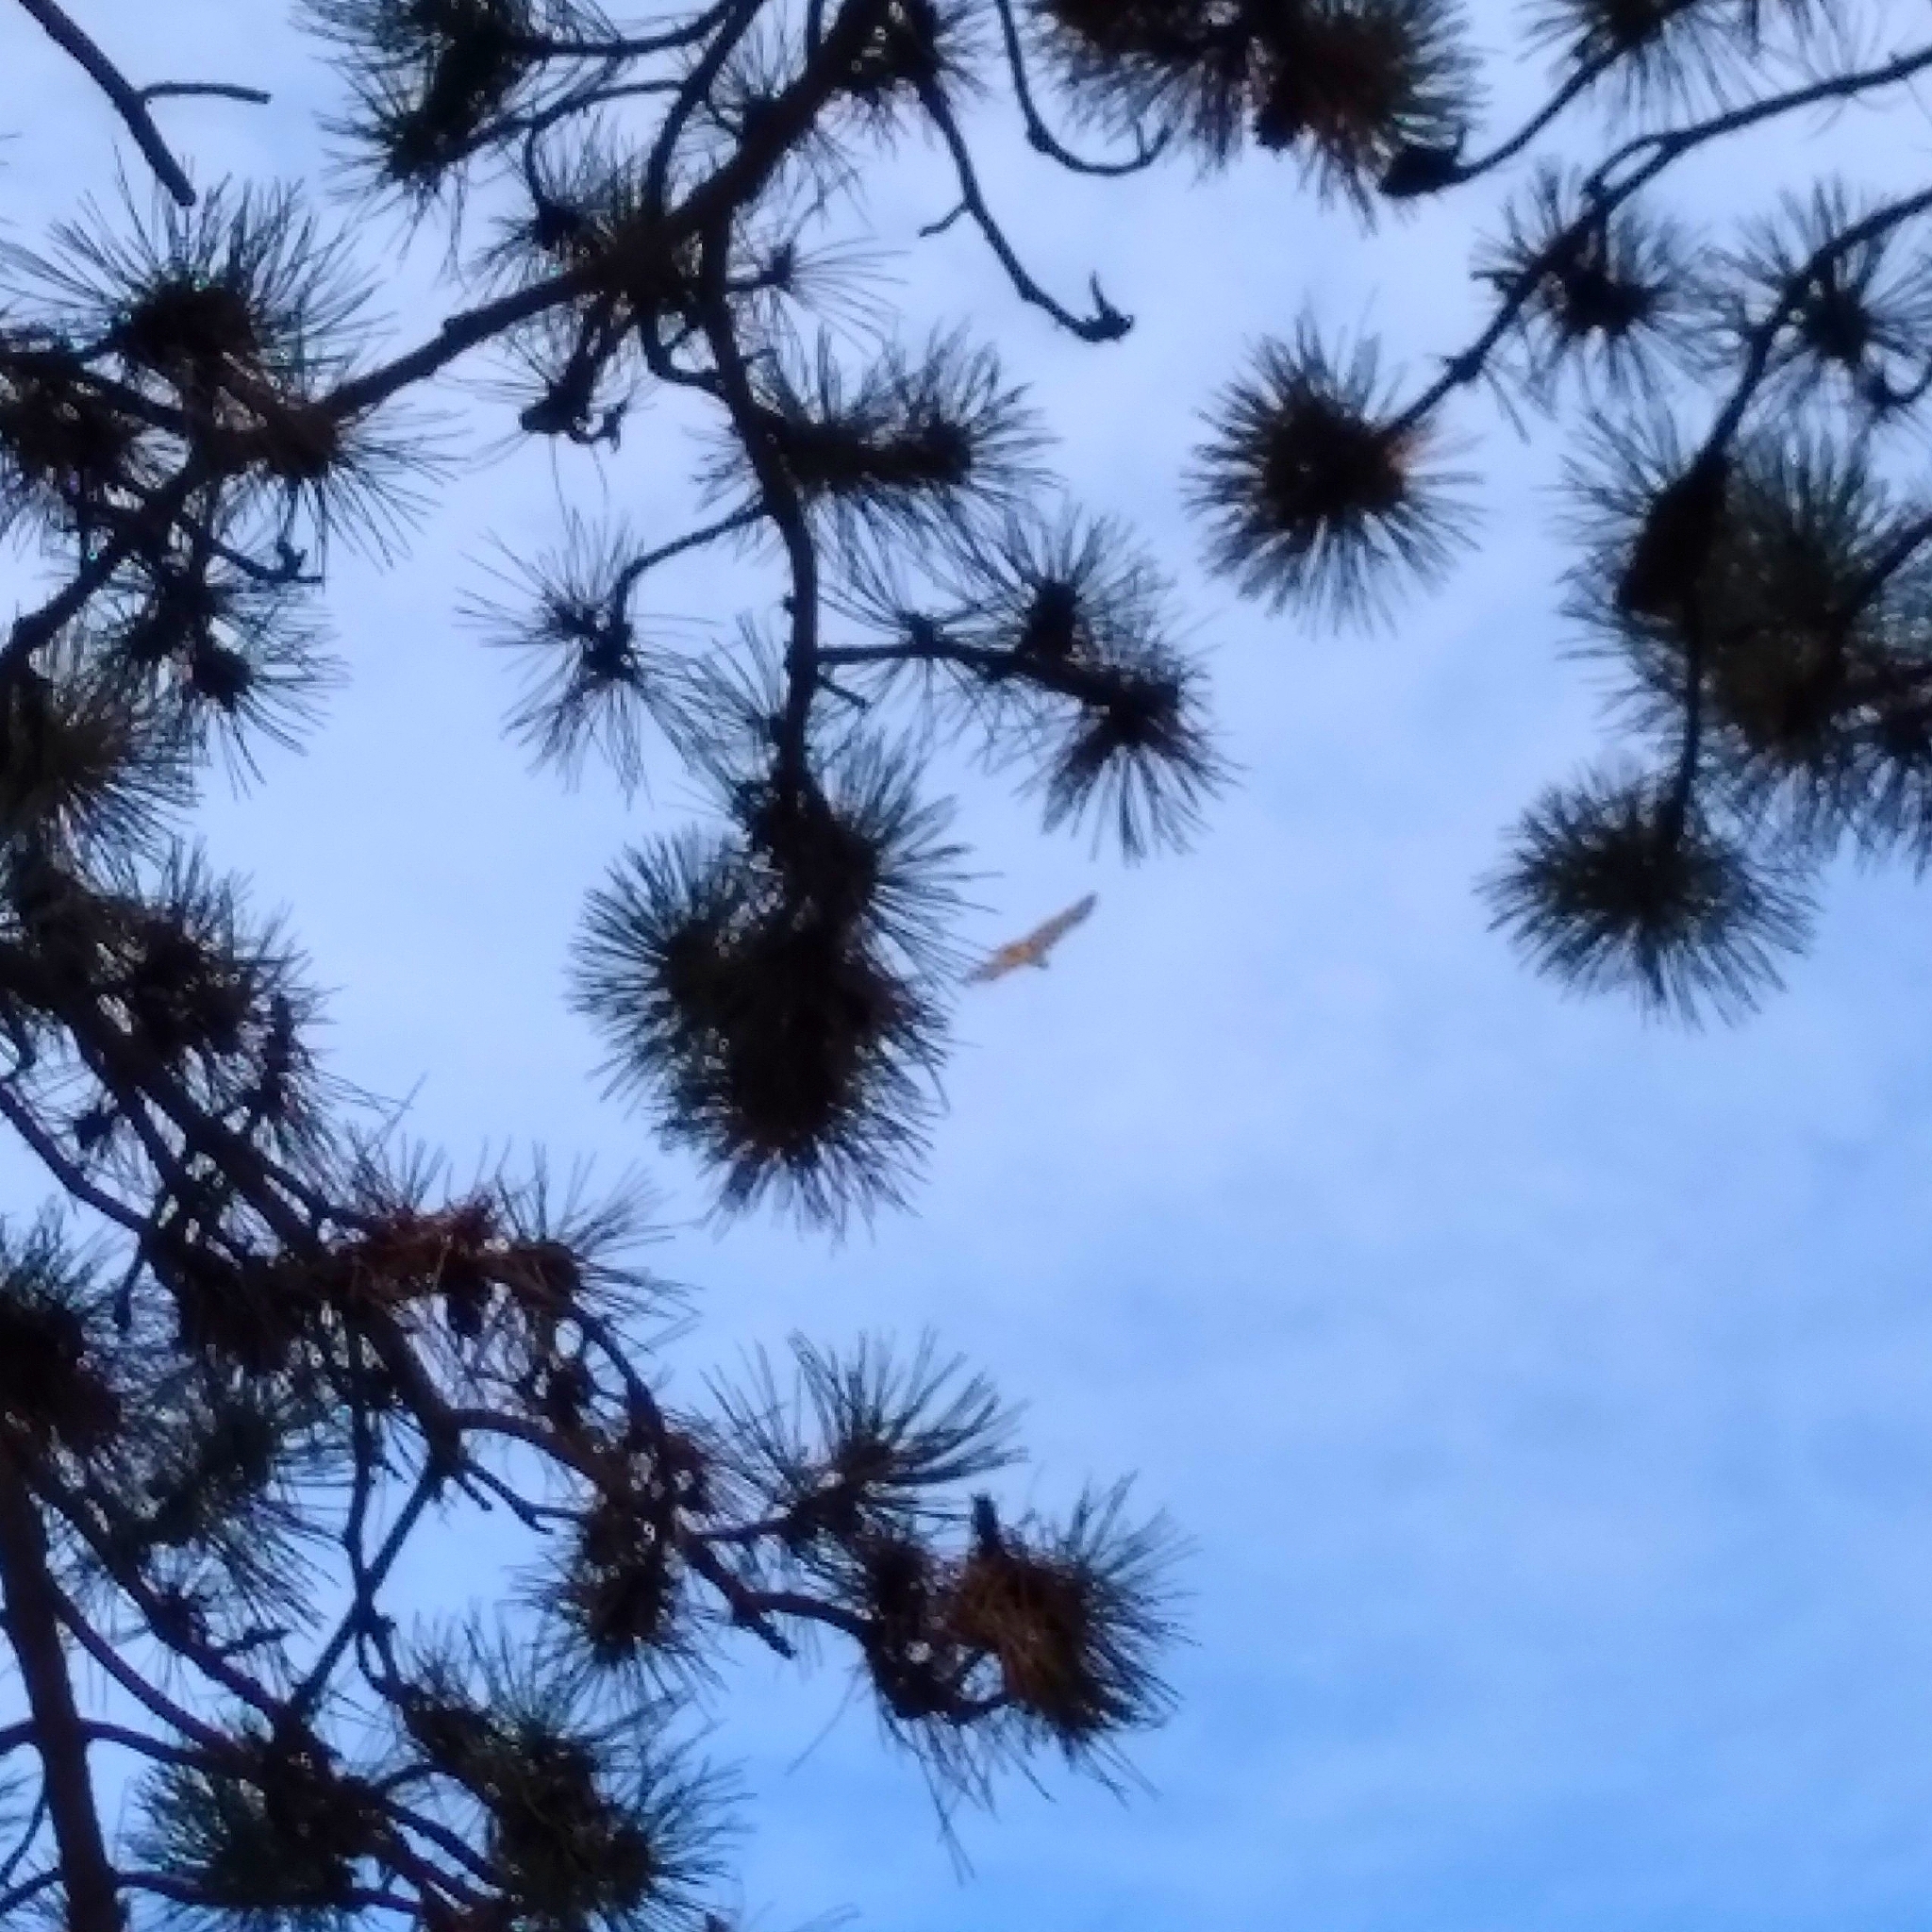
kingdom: Animalia
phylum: Chordata
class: Aves
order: Accipitriformes
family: Accipitridae
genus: Buteo
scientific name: Buteo jamaicensis
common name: Red-tailed hawk
